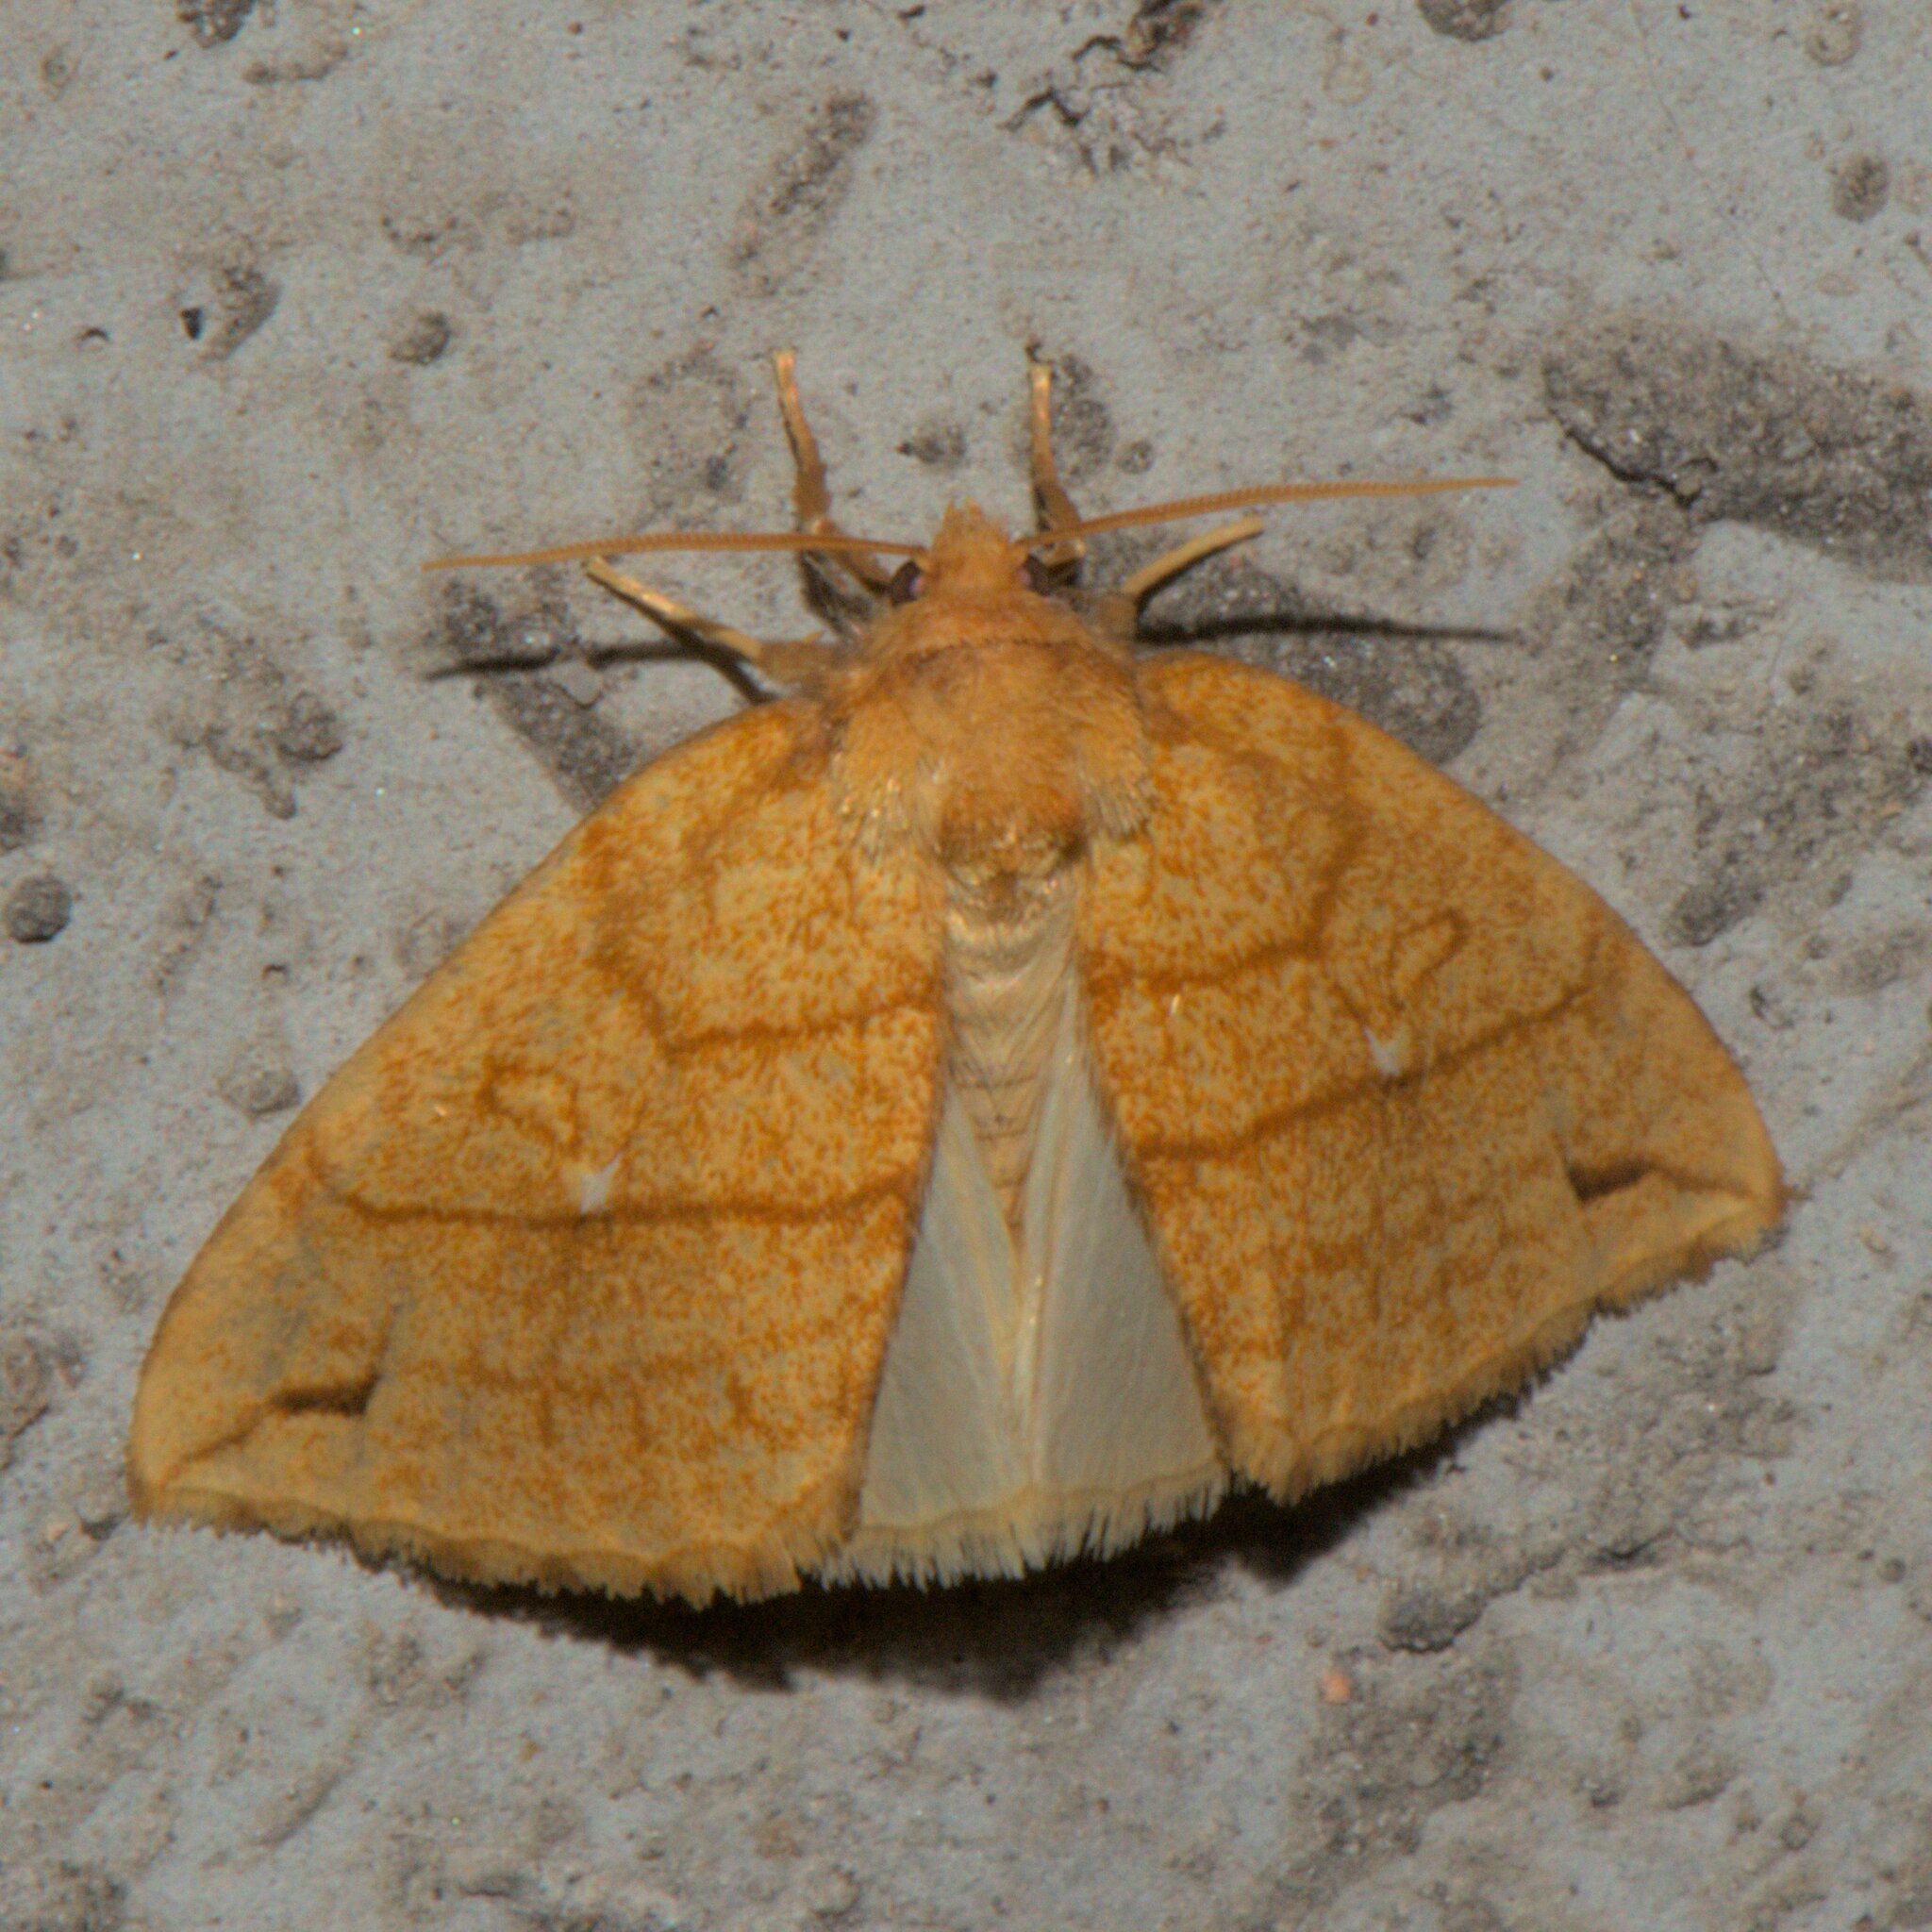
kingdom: Animalia
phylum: Arthropoda
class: Insecta
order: Lepidoptera
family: Noctuidae
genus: Xanthia
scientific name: Xanthia rectilineata
